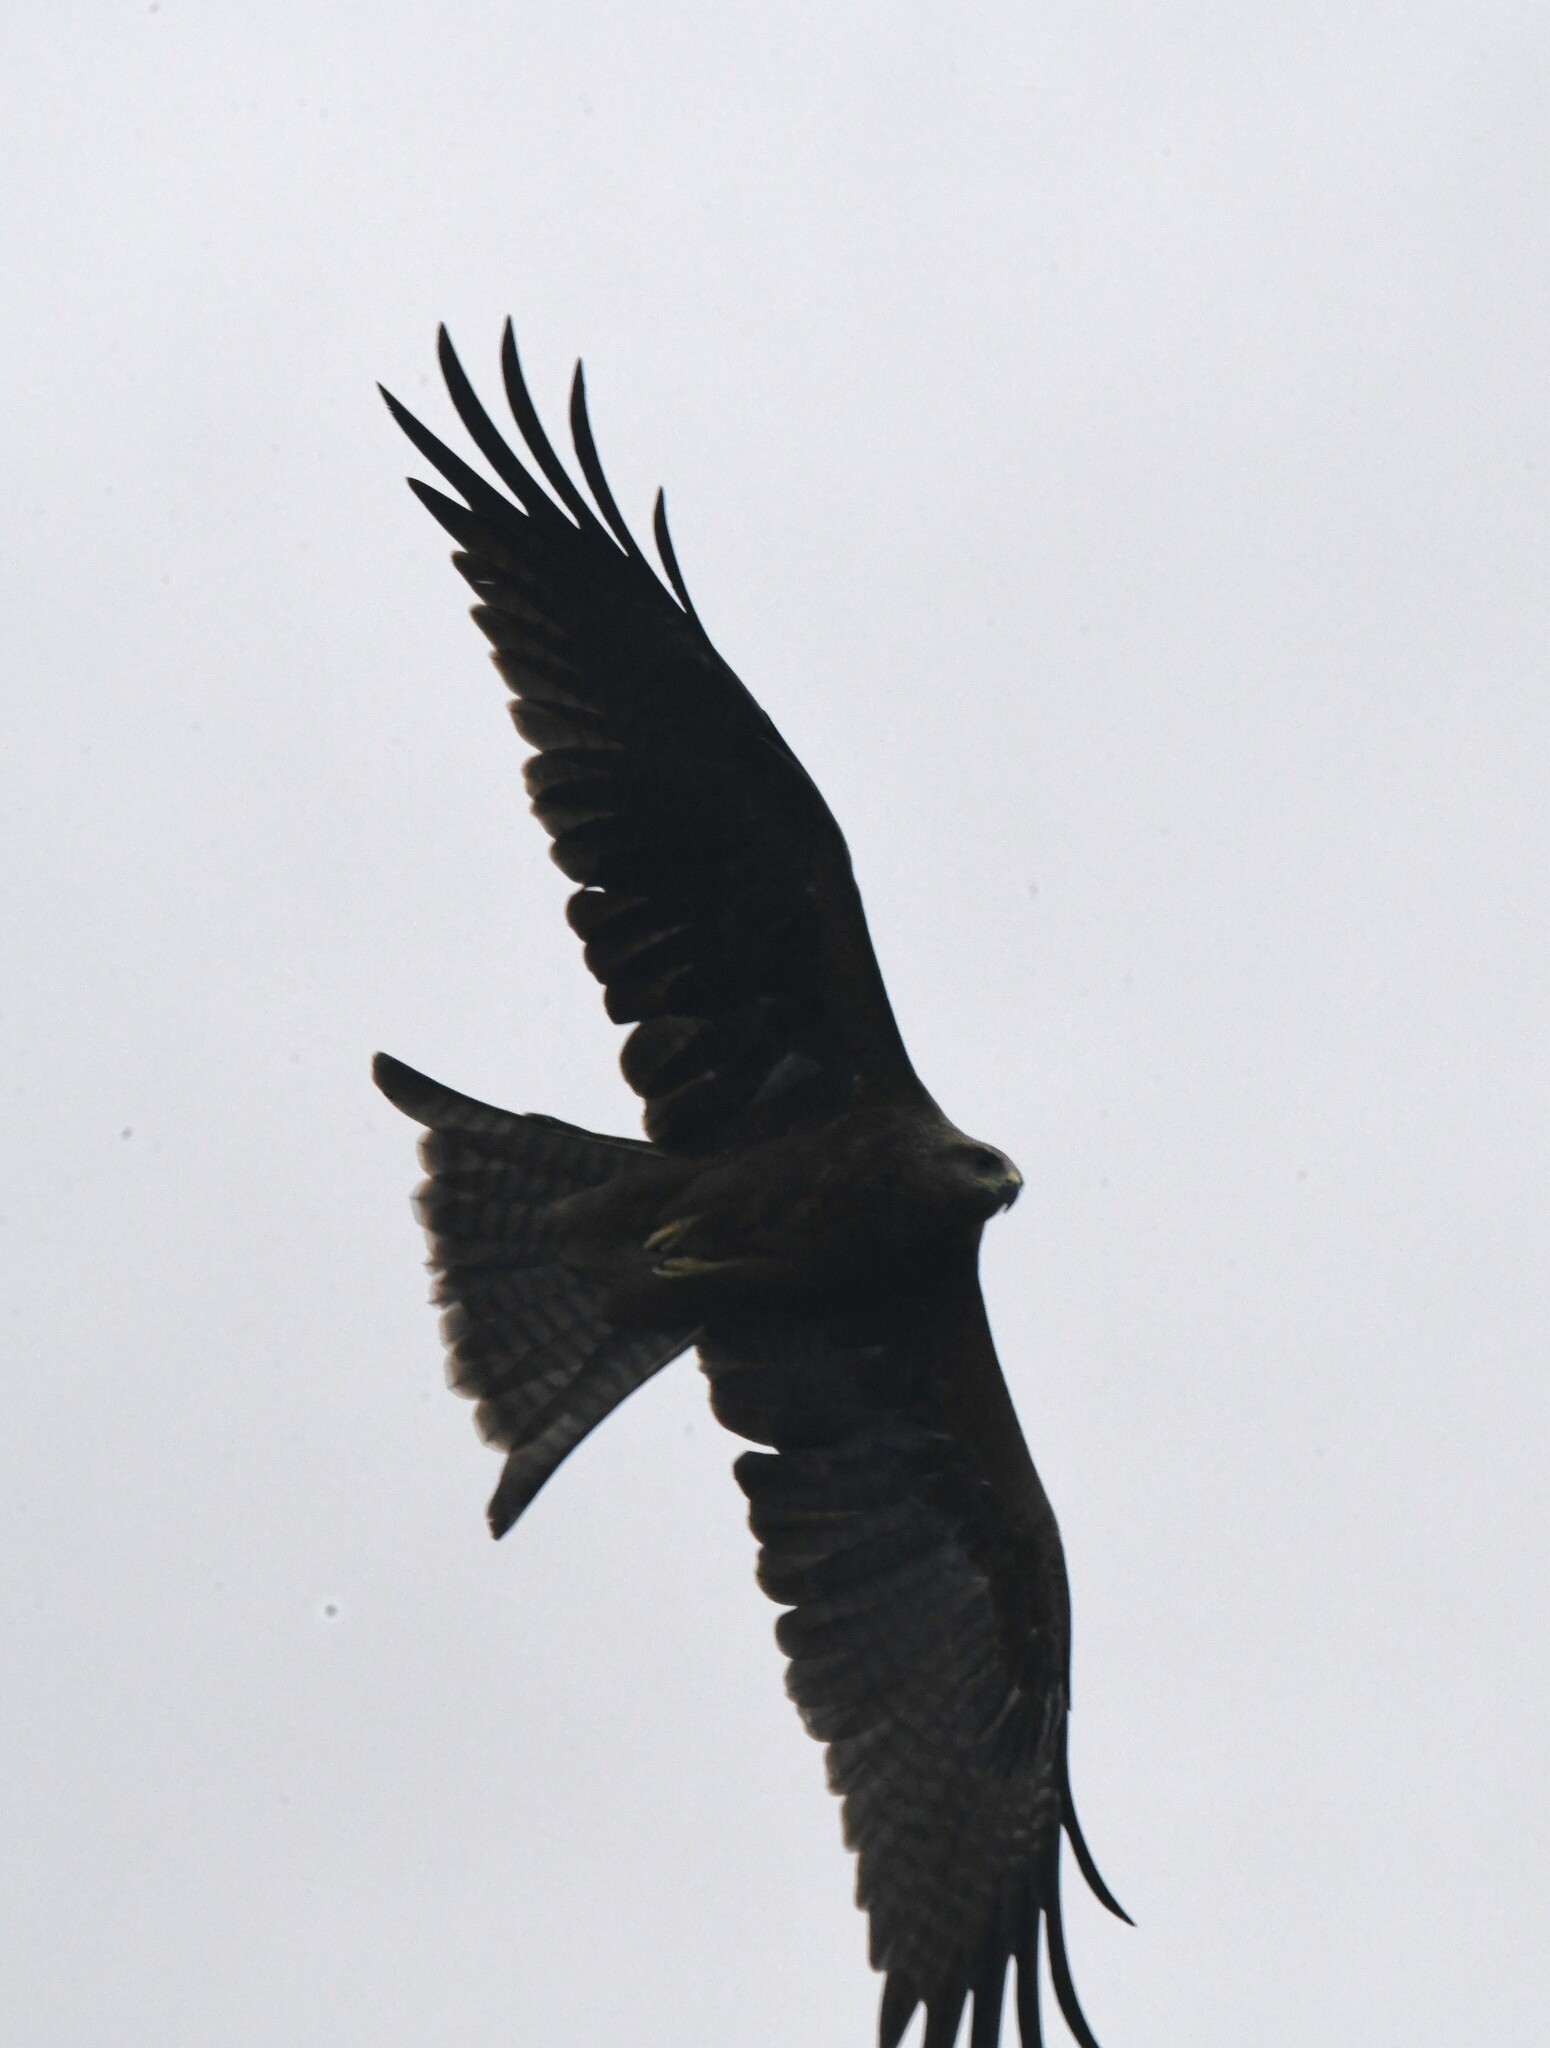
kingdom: Animalia
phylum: Chordata
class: Aves
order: Accipitriformes
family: Accipitridae
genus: Milvus
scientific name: Milvus migrans
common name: Black kite
